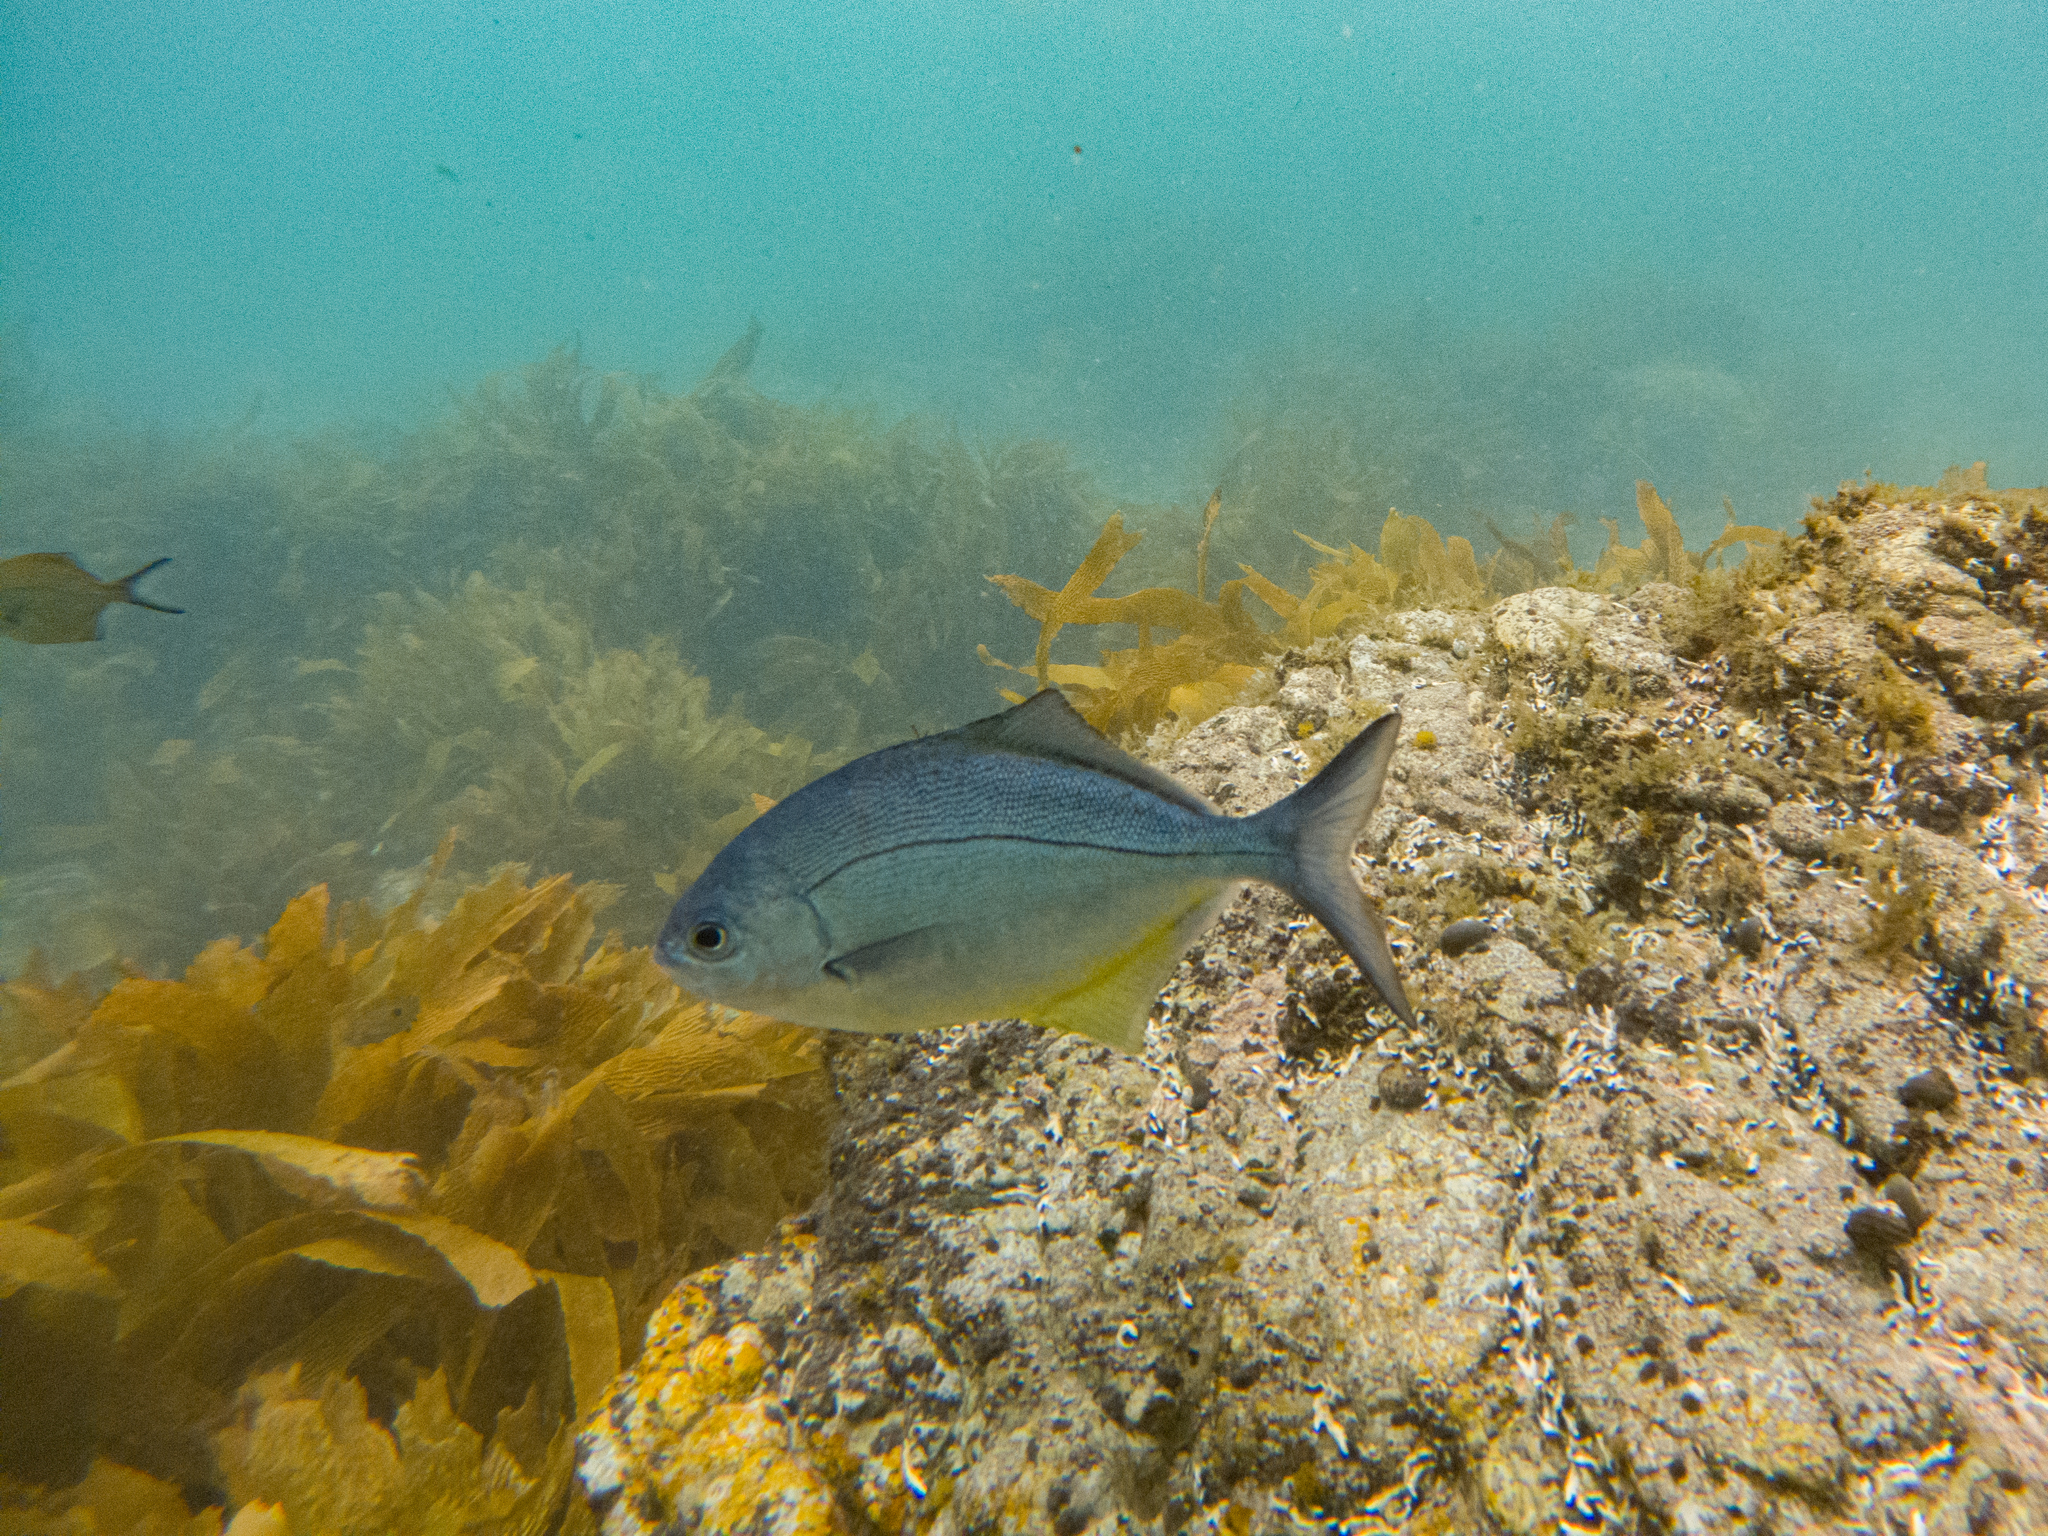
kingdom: Animalia
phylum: Chordata
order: Perciformes
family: Kyphosidae
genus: Scorpis
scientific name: Scorpis violacea
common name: Blue maomao
